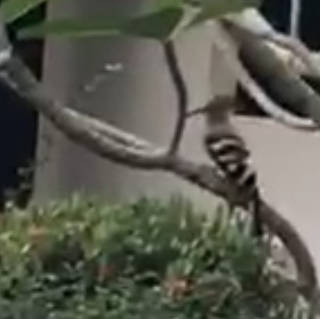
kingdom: Animalia
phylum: Chordata
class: Aves
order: Bucerotiformes
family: Upupidae
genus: Upupa
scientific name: Upupa epops
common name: Eurasian hoopoe
